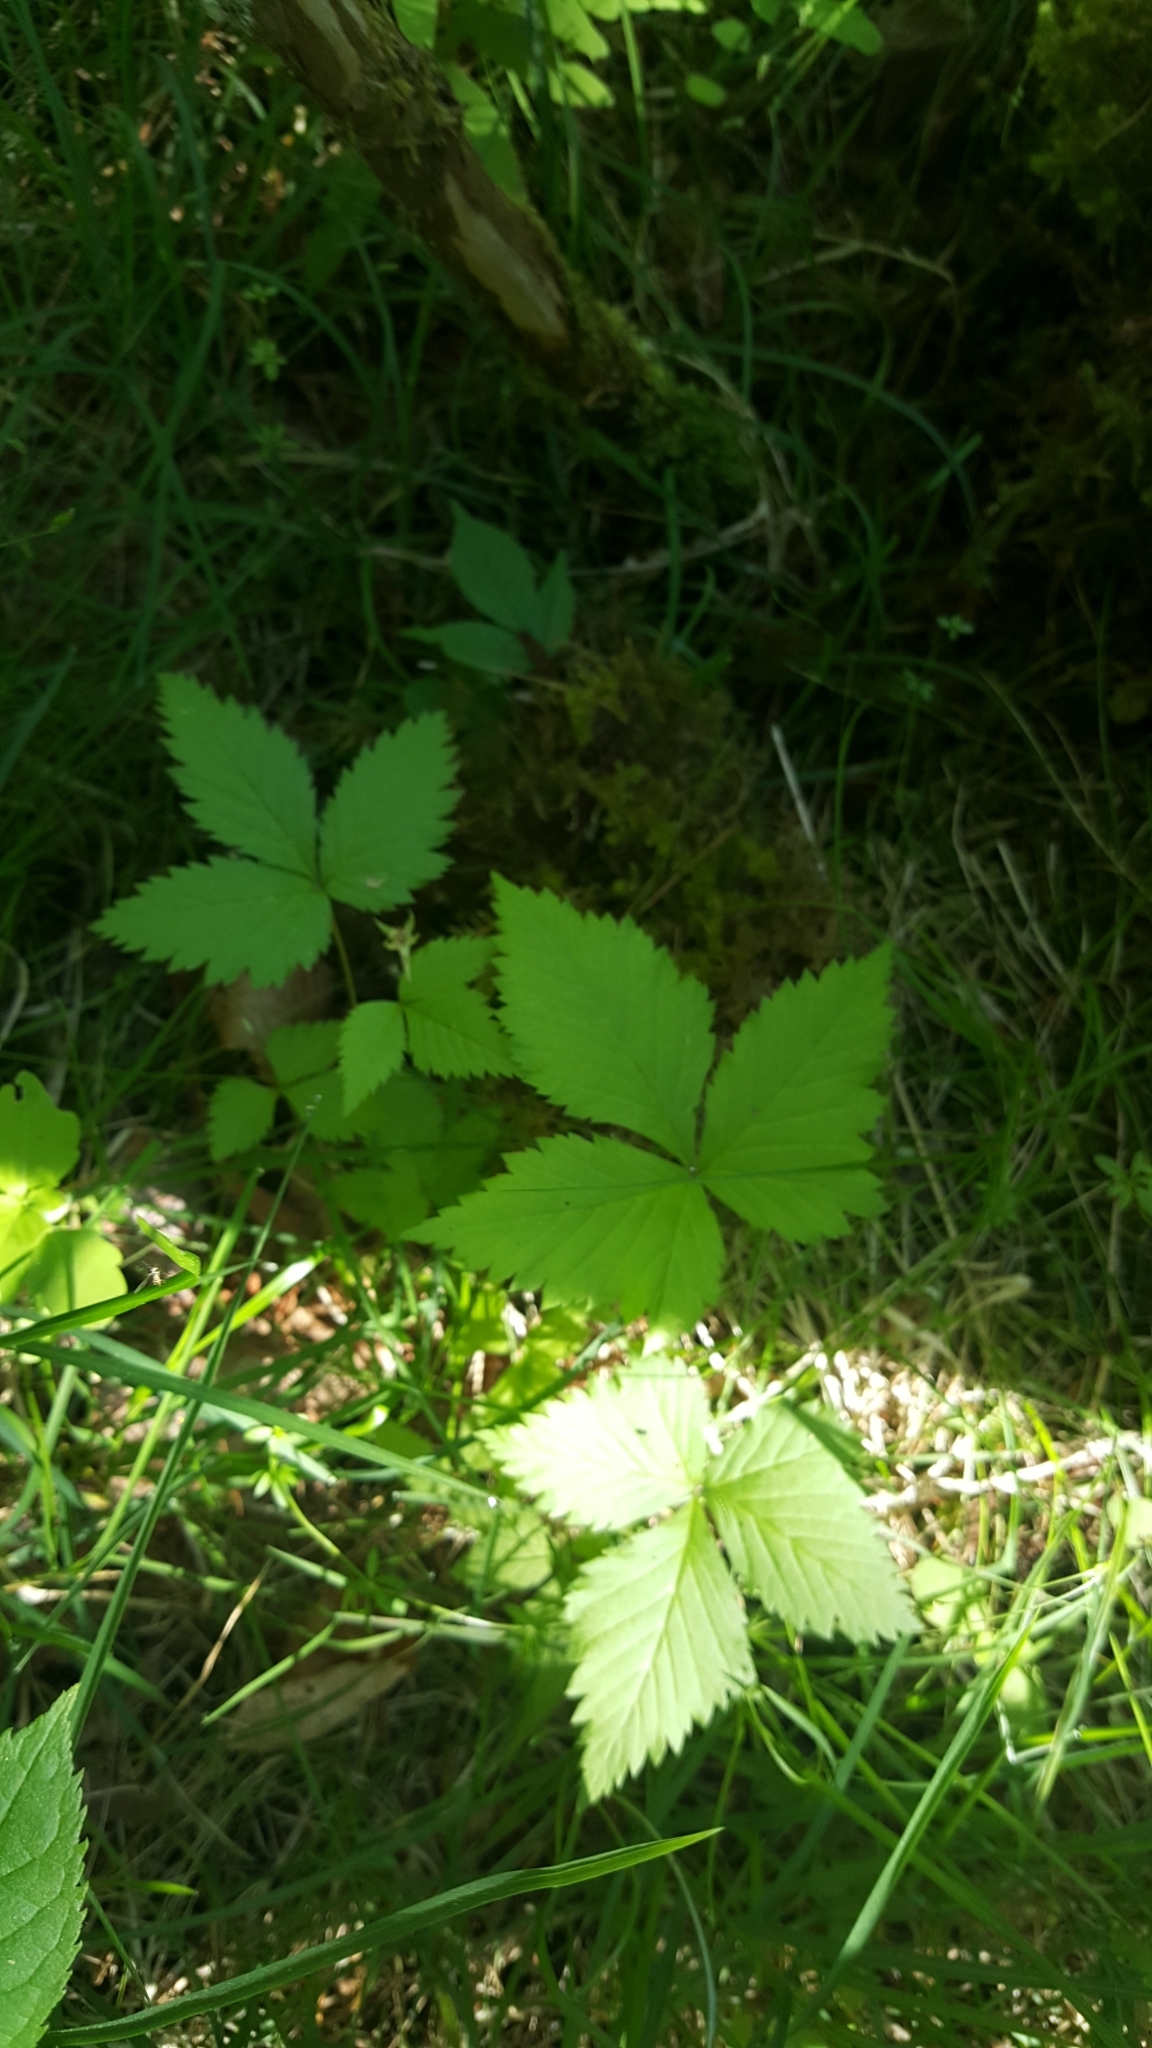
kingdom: Plantae
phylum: Tracheophyta
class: Magnoliopsida
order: Rosales
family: Rosaceae
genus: Rubus
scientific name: Rubus pubescens
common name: Dwarf raspberry
